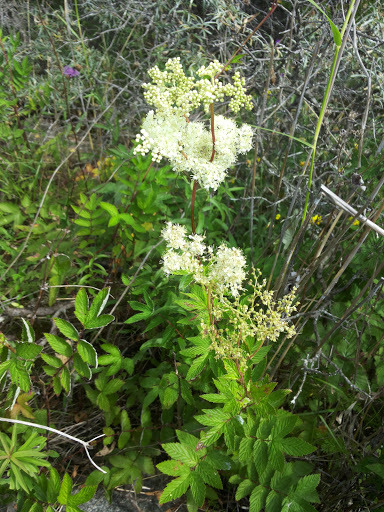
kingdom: Plantae
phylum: Tracheophyta
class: Magnoliopsida
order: Rosales
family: Rosaceae
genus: Filipendula
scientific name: Filipendula ulmaria
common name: Meadowsweet
